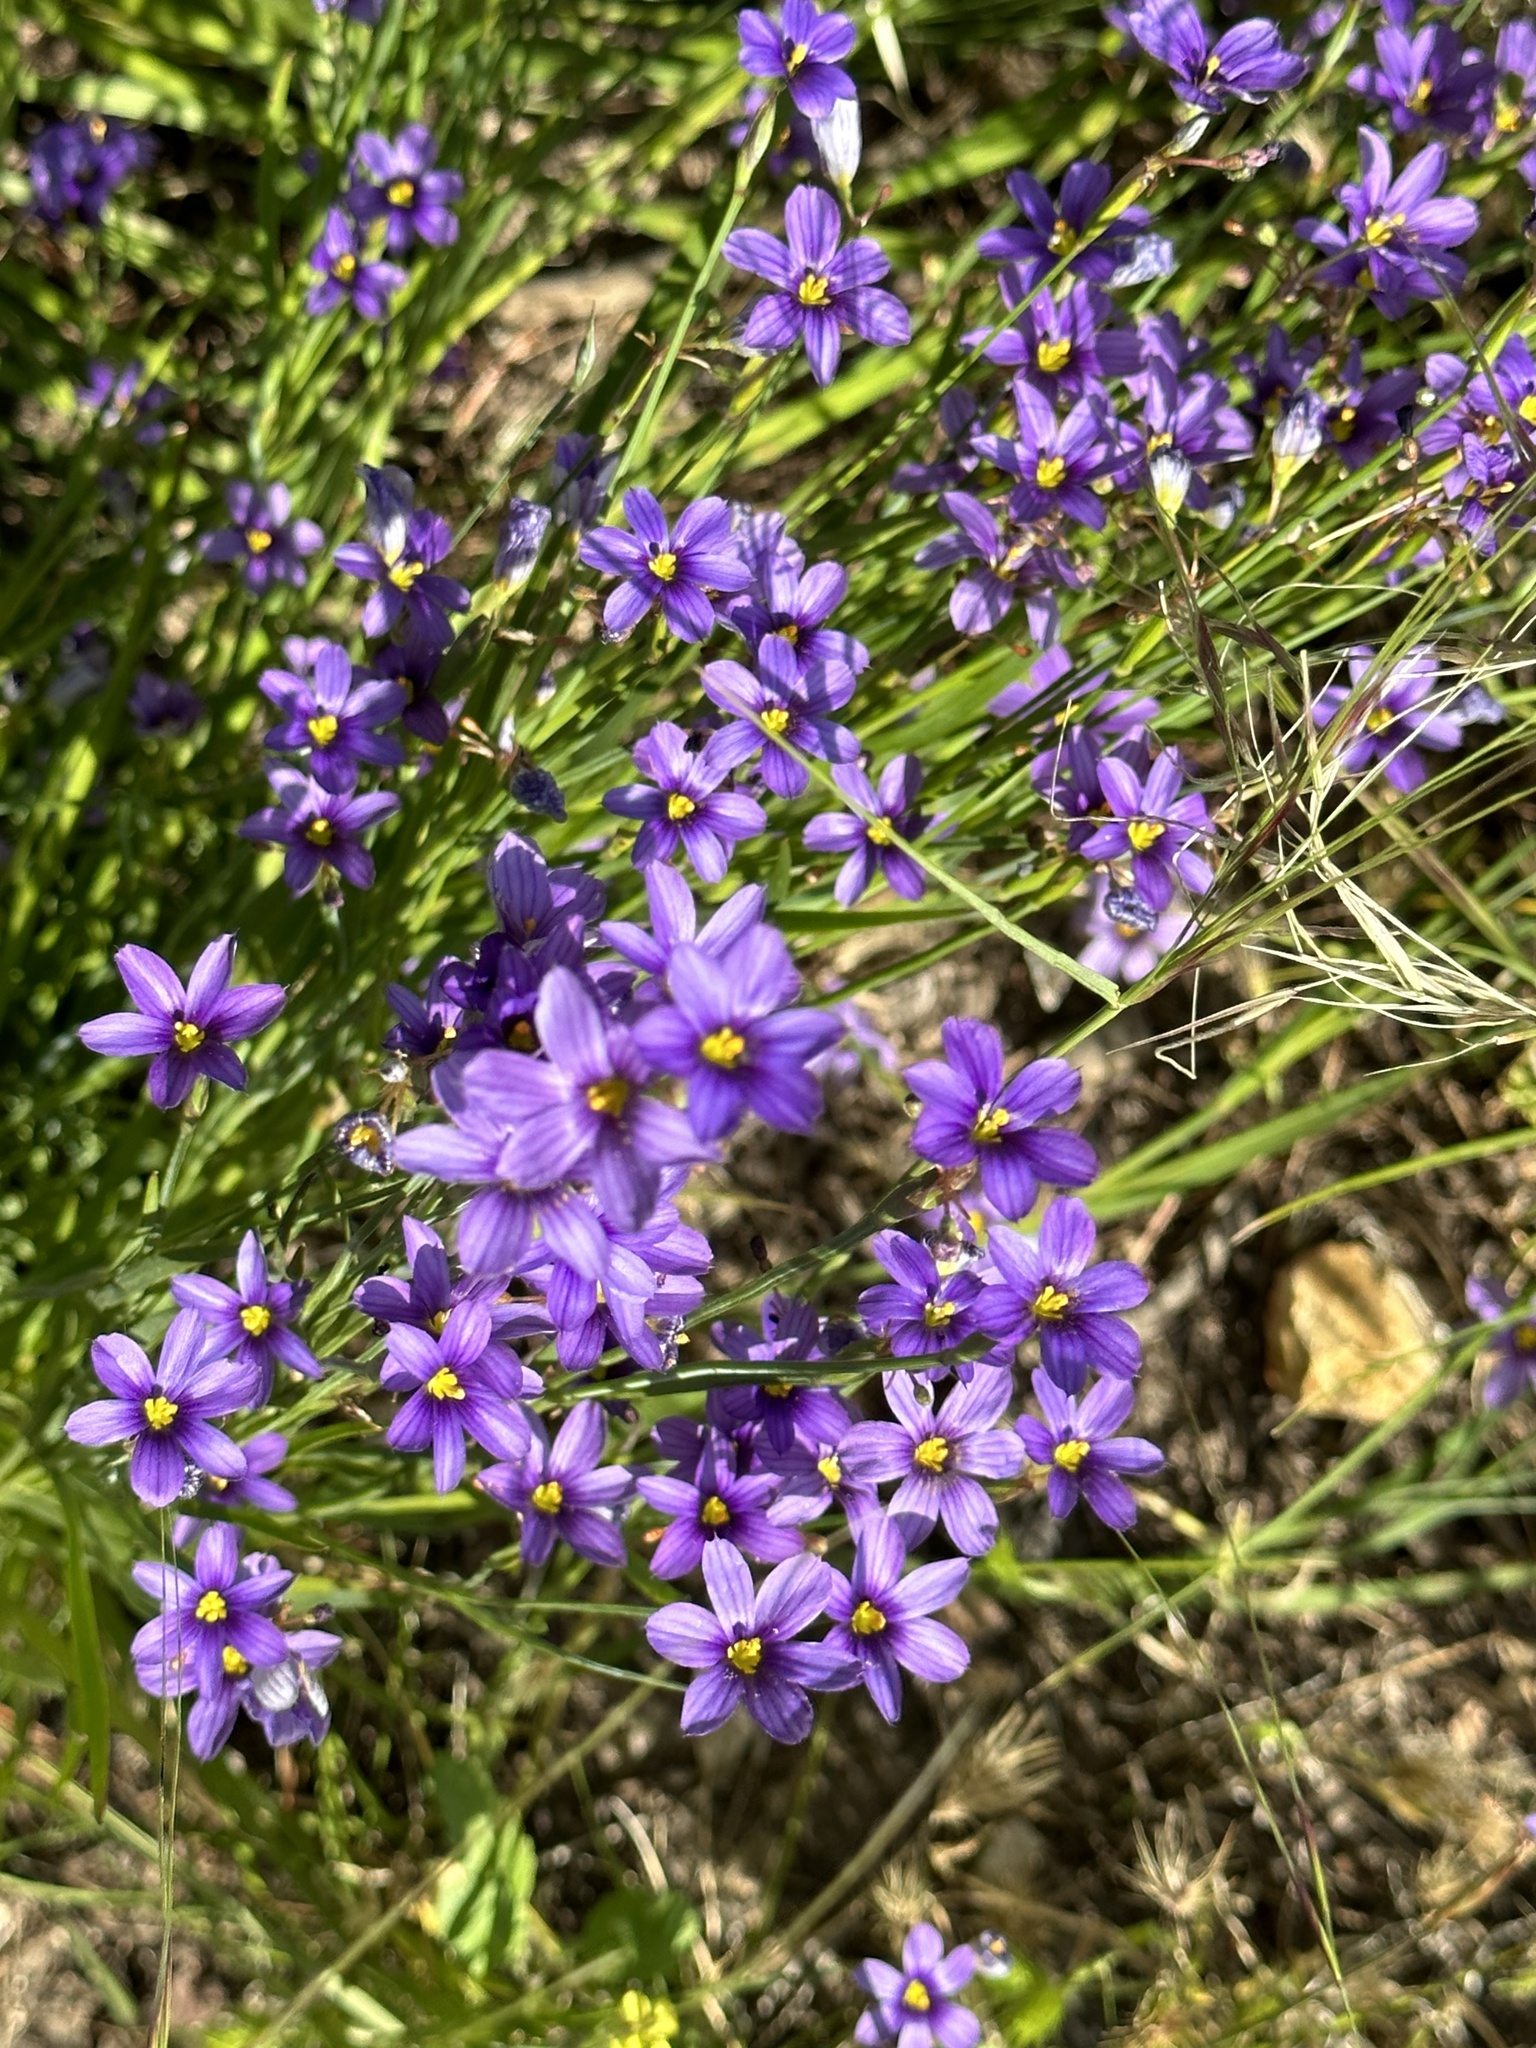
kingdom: Plantae
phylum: Tracheophyta
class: Liliopsida
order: Asparagales
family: Iridaceae
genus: Sisyrinchium
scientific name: Sisyrinchium bellum
